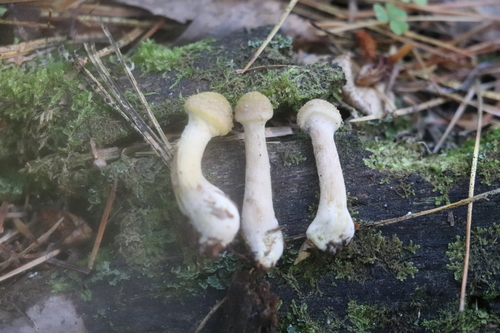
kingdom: Fungi
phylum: Basidiomycota
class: Agaricomycetes
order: Agaricales
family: Physalacriaceae
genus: Armillaria
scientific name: Armillaria cepistipes
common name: Mullet honey fungus
